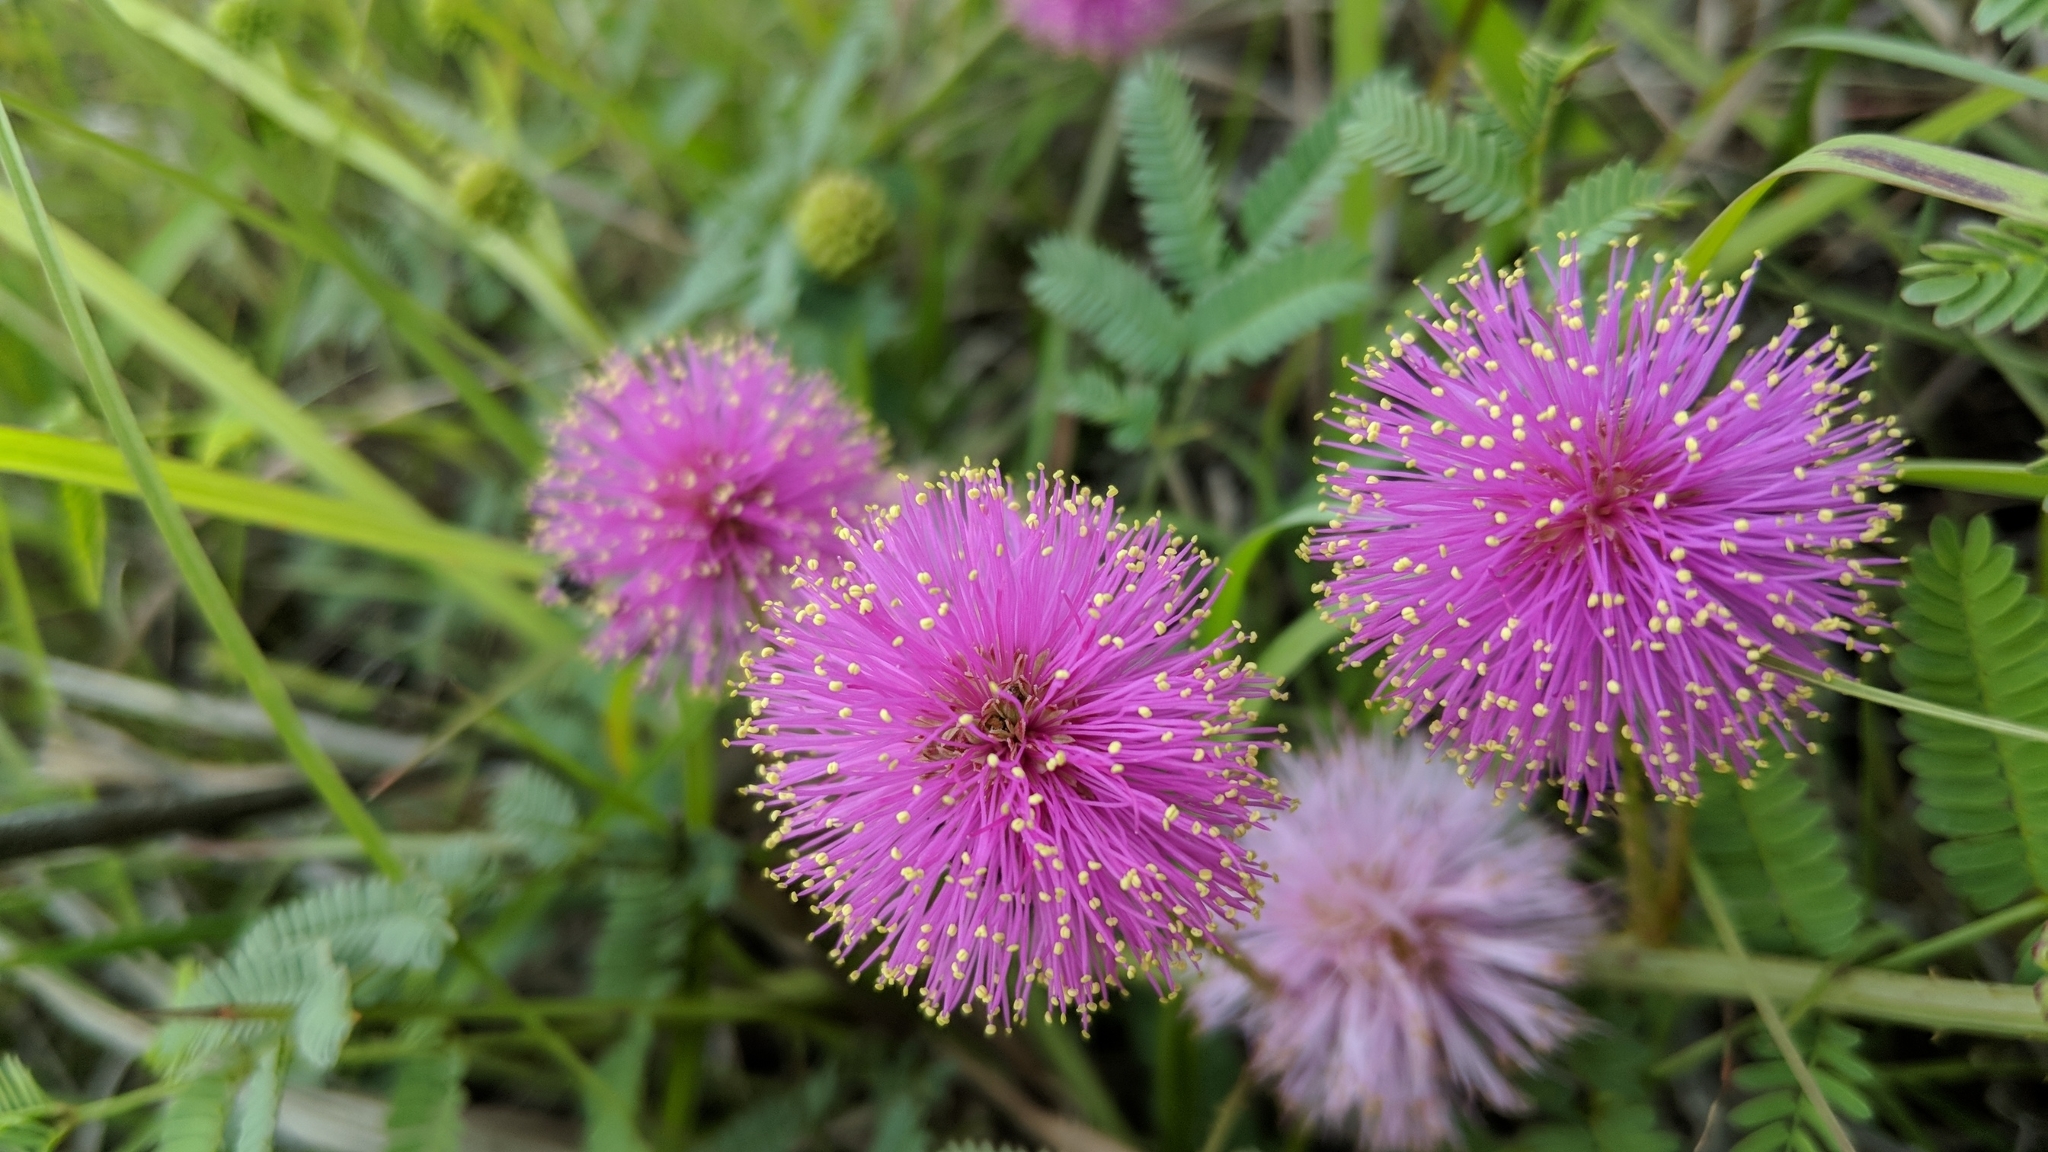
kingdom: Plantae
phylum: Tracheophyta
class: Magnoliopsida
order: Fabales
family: Fabaceae
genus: Mimosa
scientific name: Mimosa quadrivalvis
